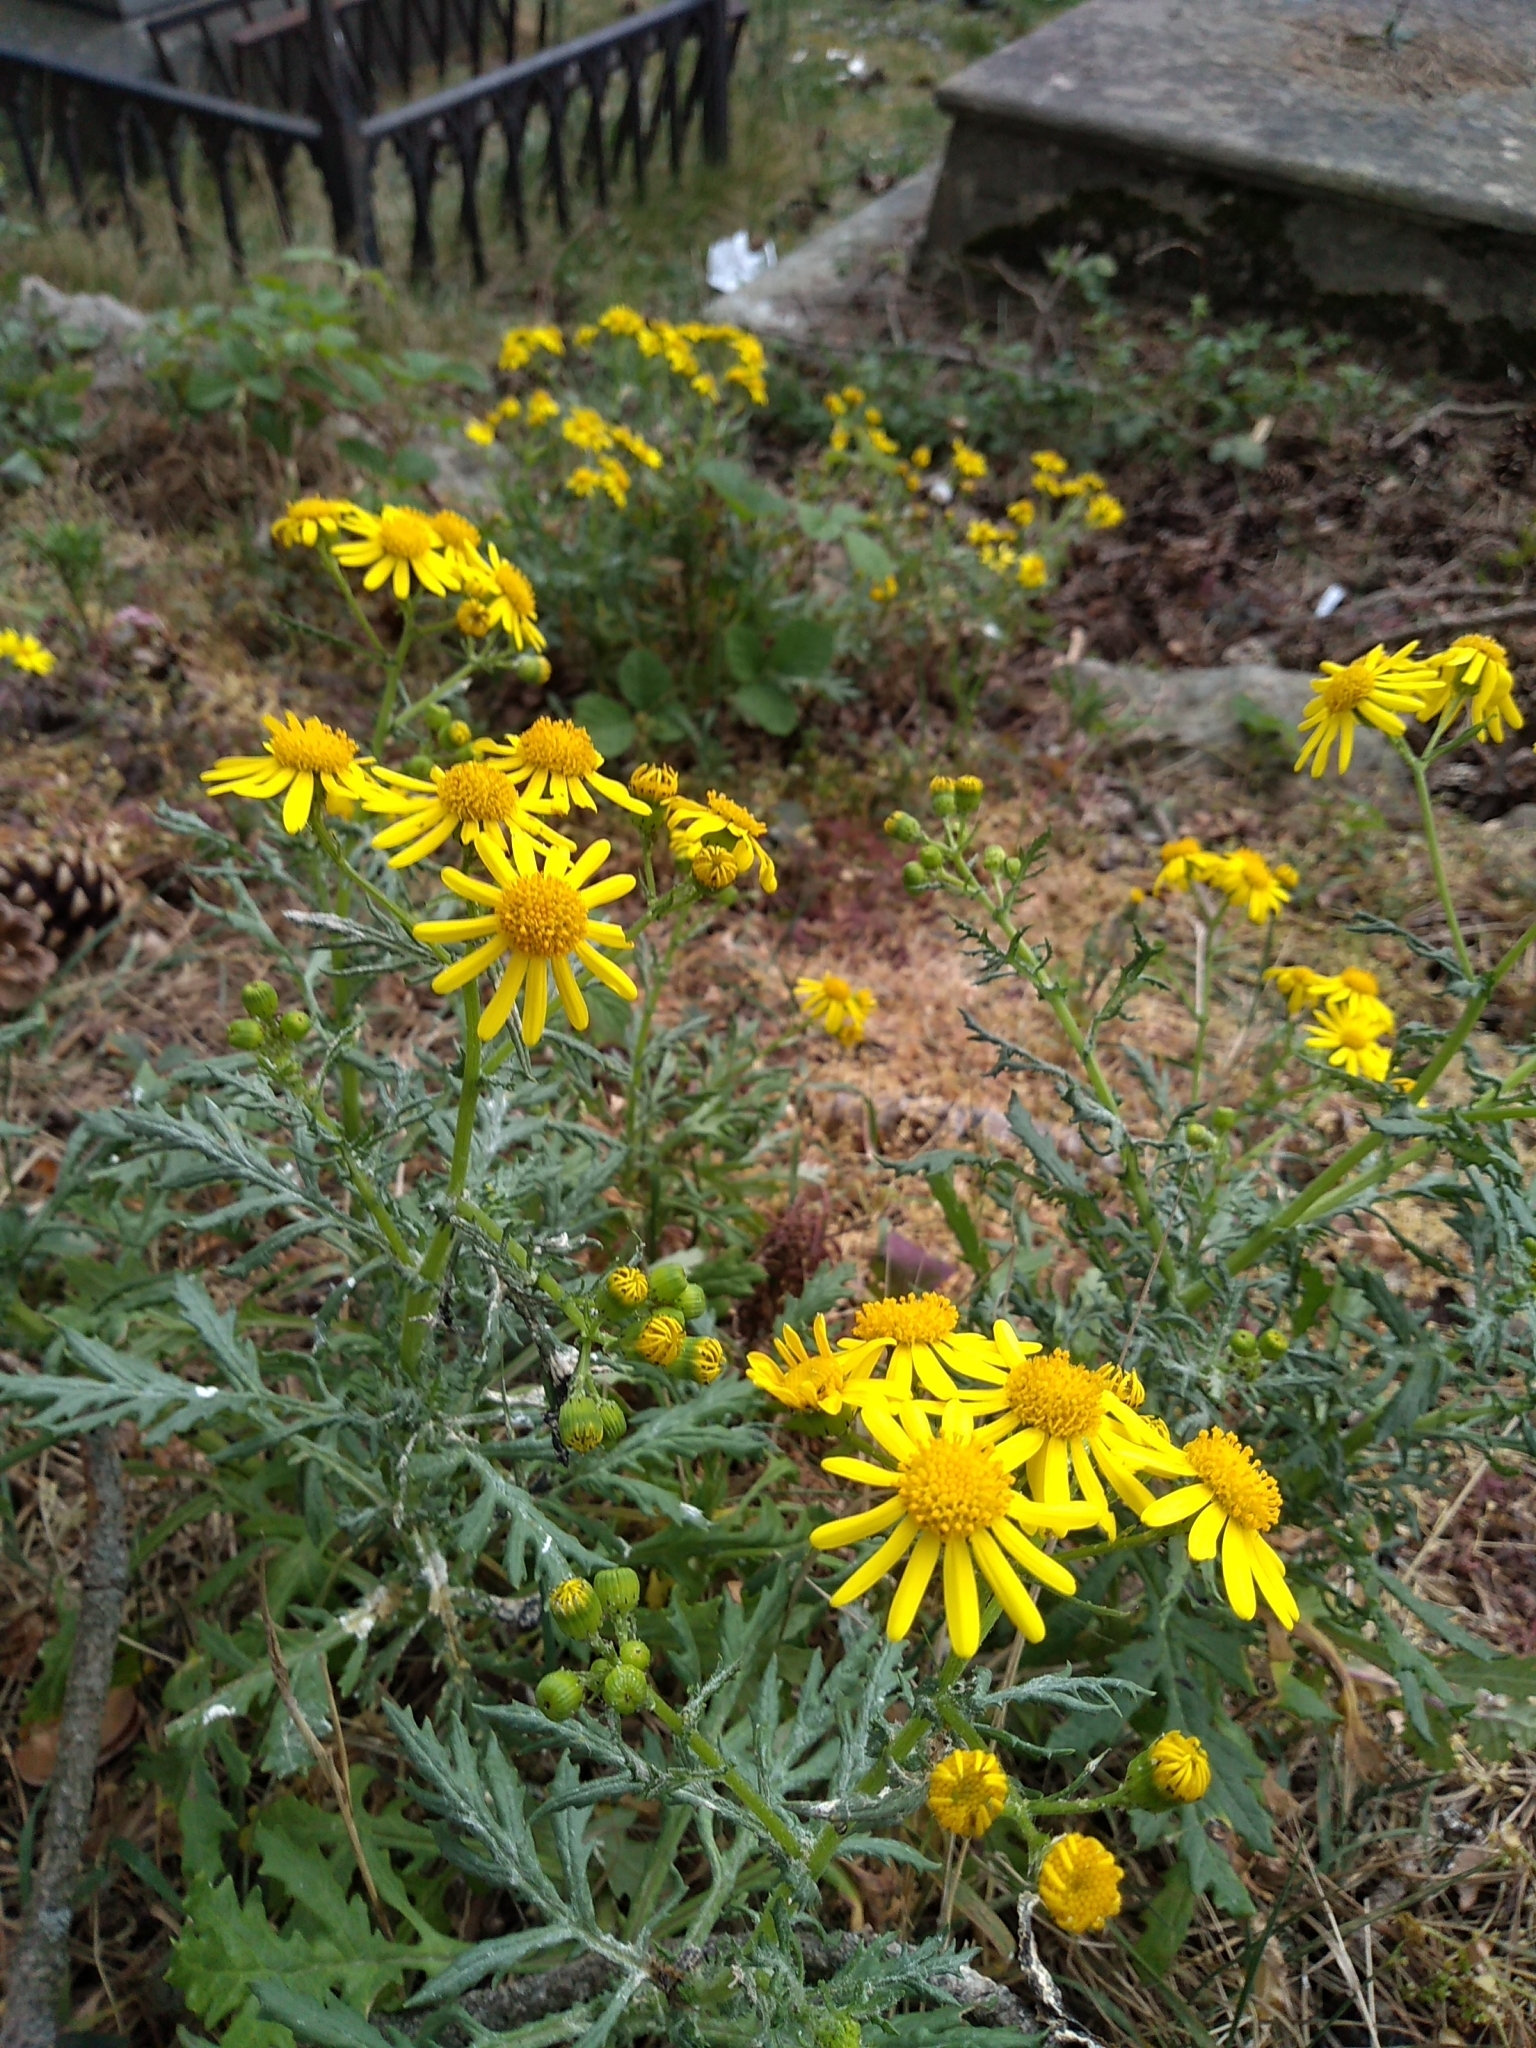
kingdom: Plantae
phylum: Tracheophyta
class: Magnoliopsida
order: Asterales
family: Asteraceae
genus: Senecio
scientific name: Senecio squalidus
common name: Oxford ragwort
